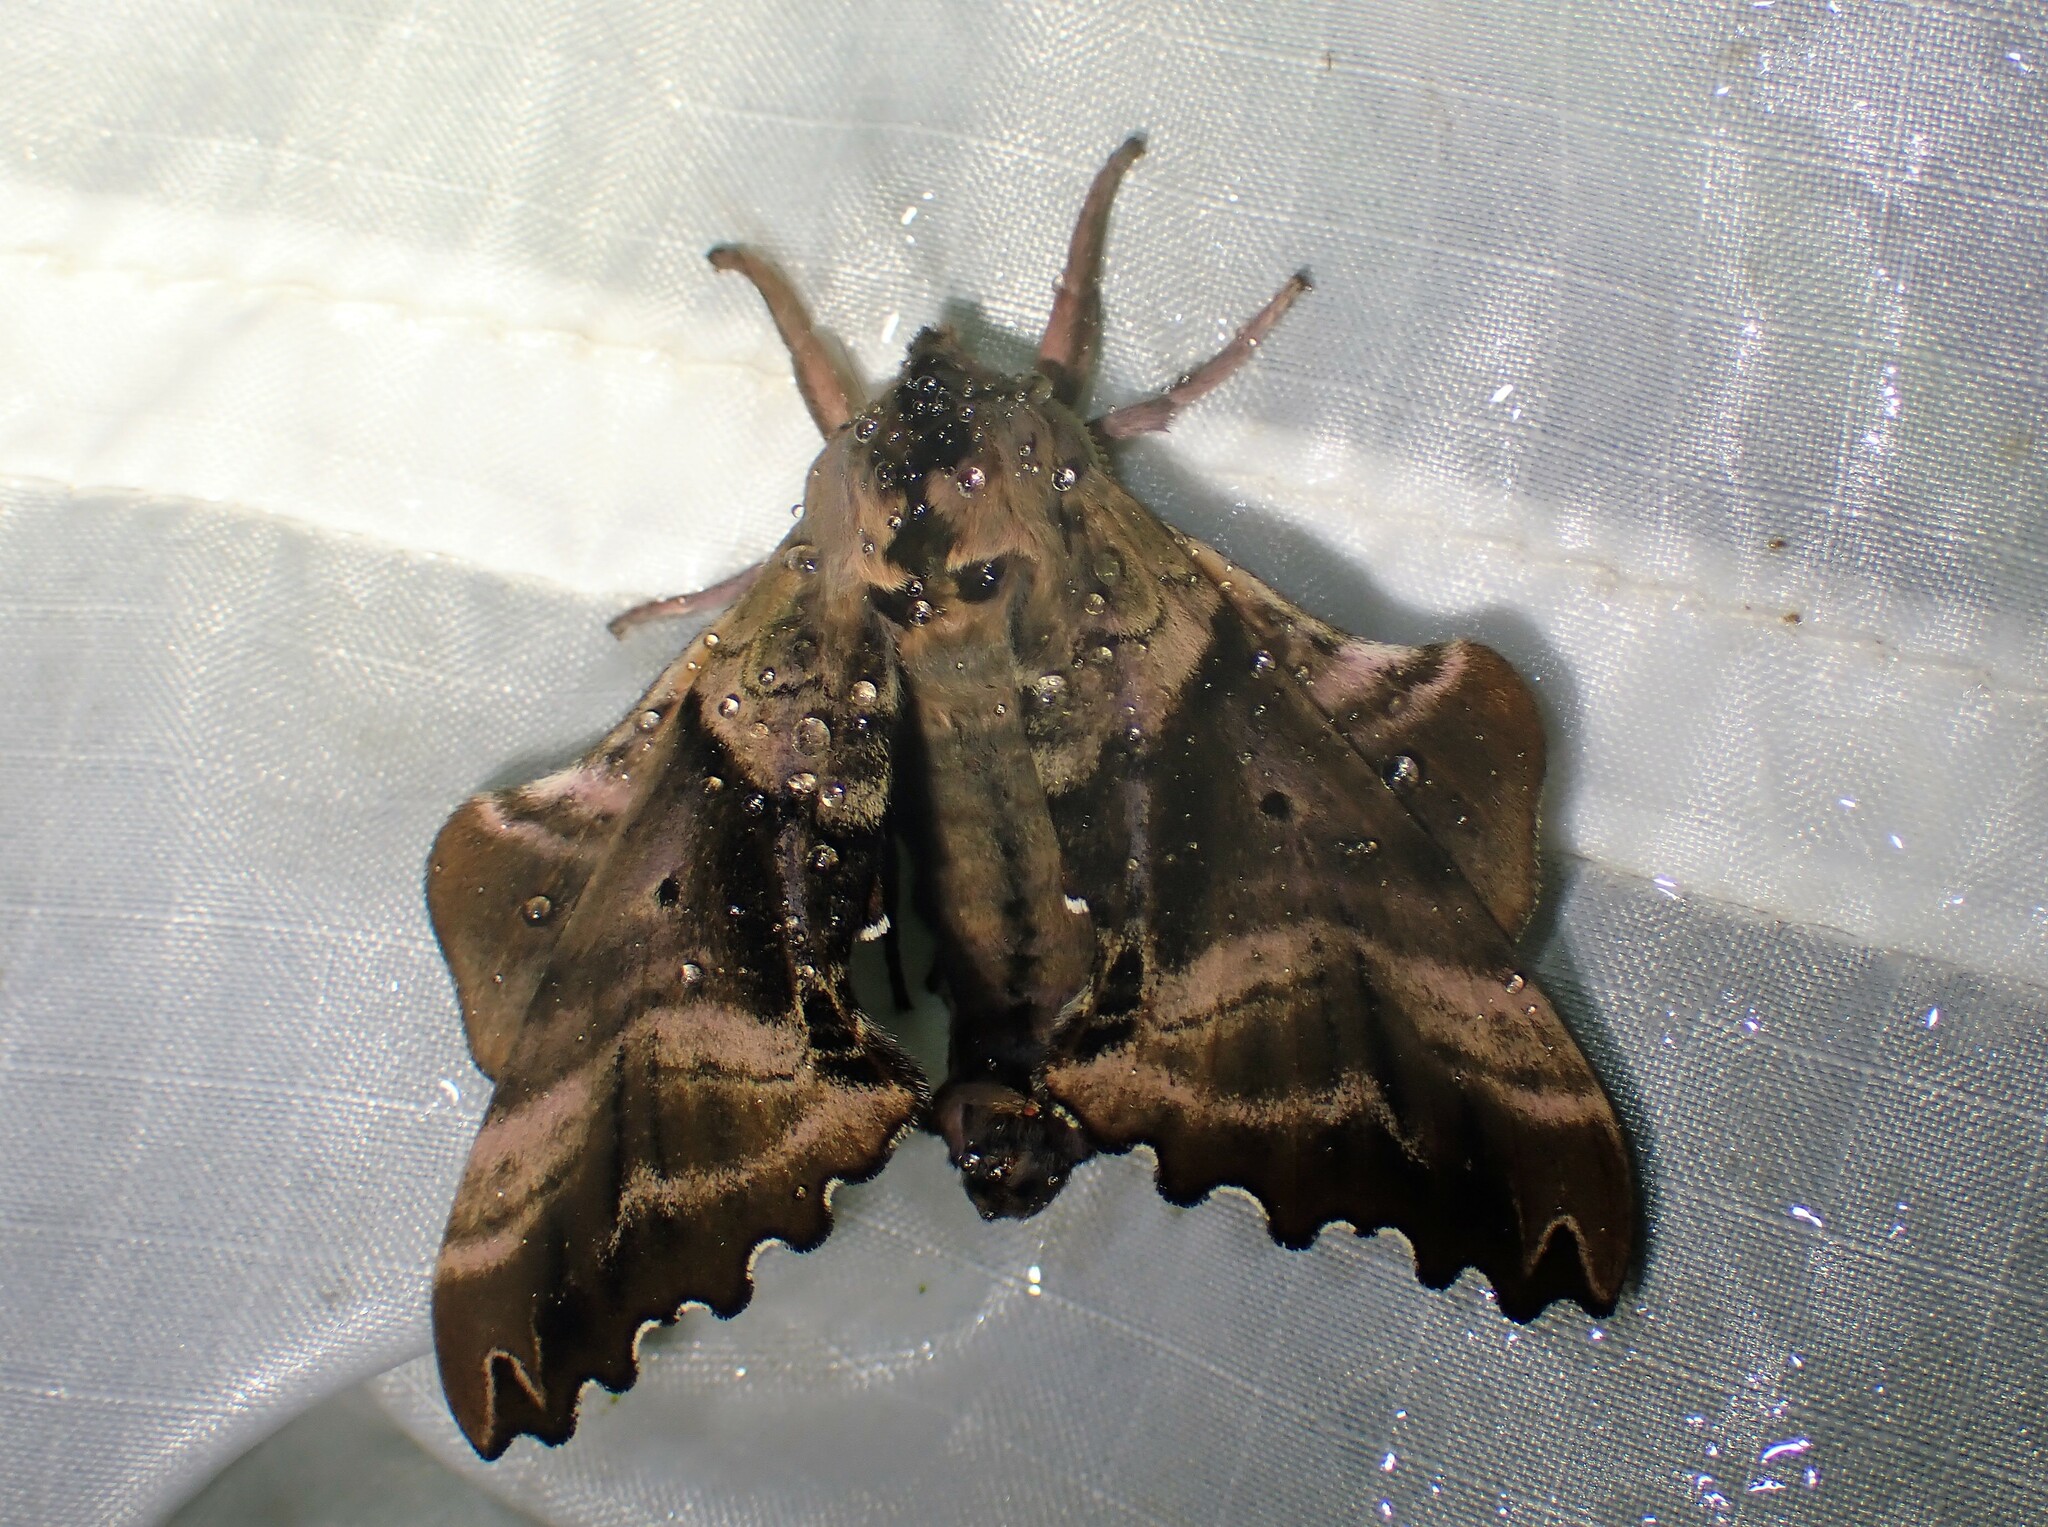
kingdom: Animalia
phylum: Arthropoda
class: Insecta
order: Lepidoptera
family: Sphingidae
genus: Paonias
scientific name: Paonias excaecata
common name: Blind-eyed sphinx
